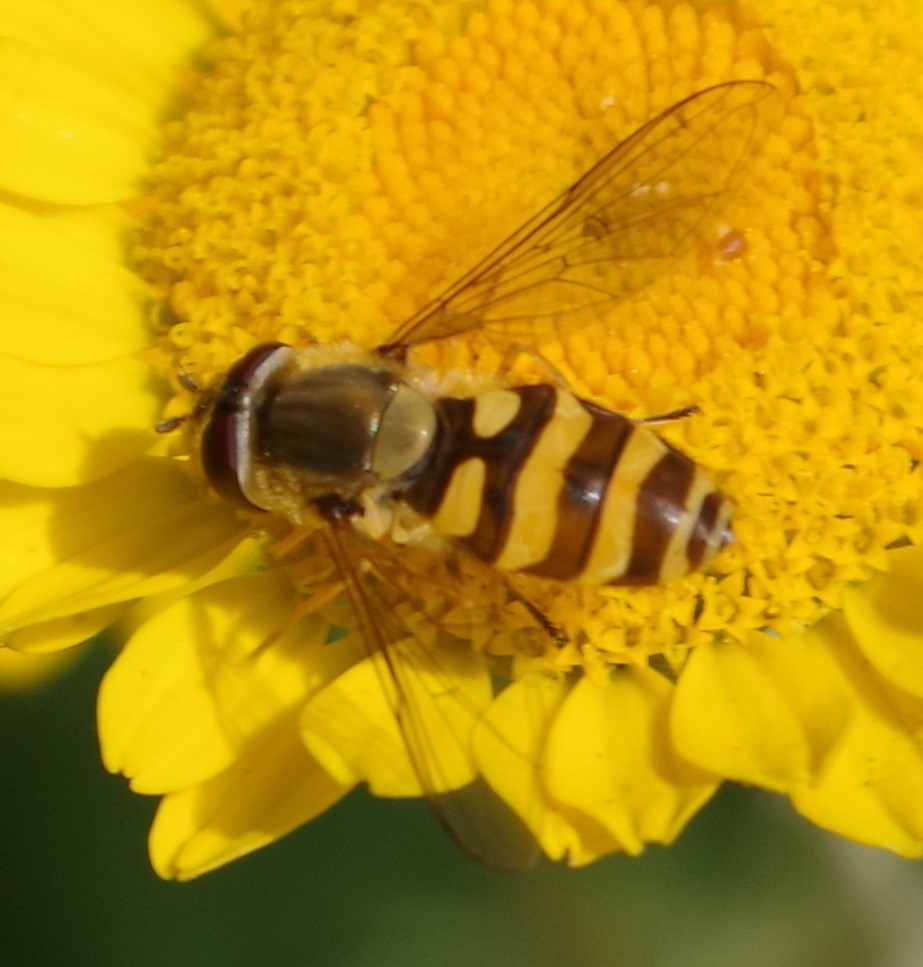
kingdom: Animalia
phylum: Arthropoda
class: Insecta
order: Diptera
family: Syrphidae
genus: Syrphus
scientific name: Syrphus
